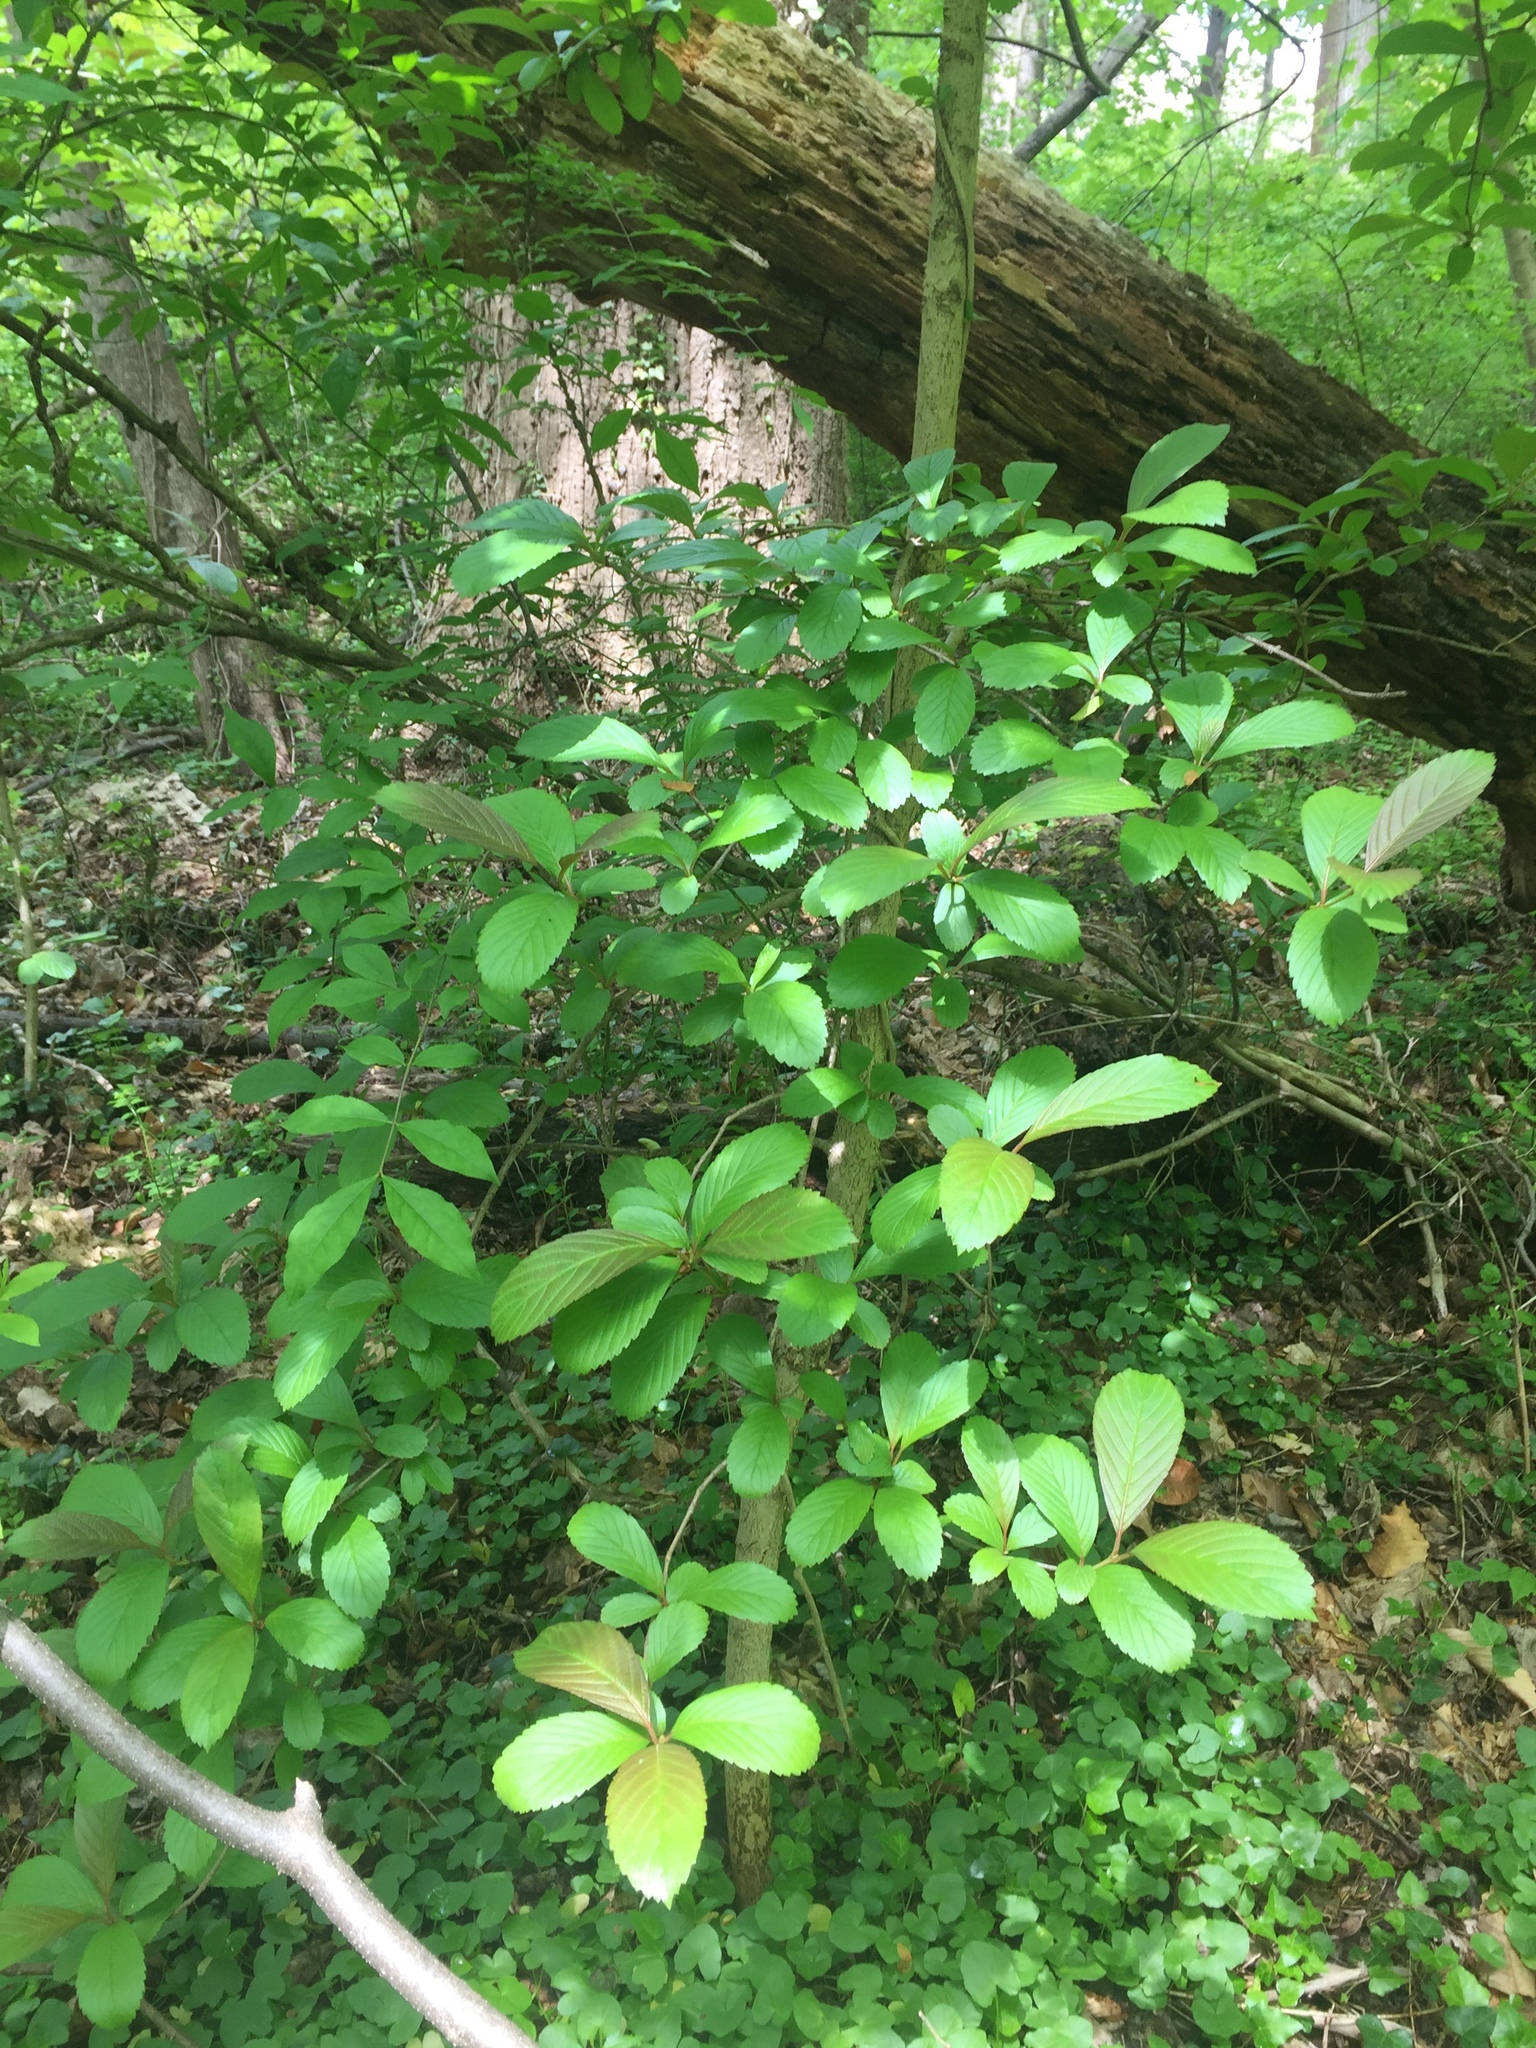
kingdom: Plantae
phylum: Tracheophyta
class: Magnoliopsida
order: Dipsacales
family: Viburnaceae
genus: Viburnum
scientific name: Viburnum sieboldii
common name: Siebold's arrowwood
